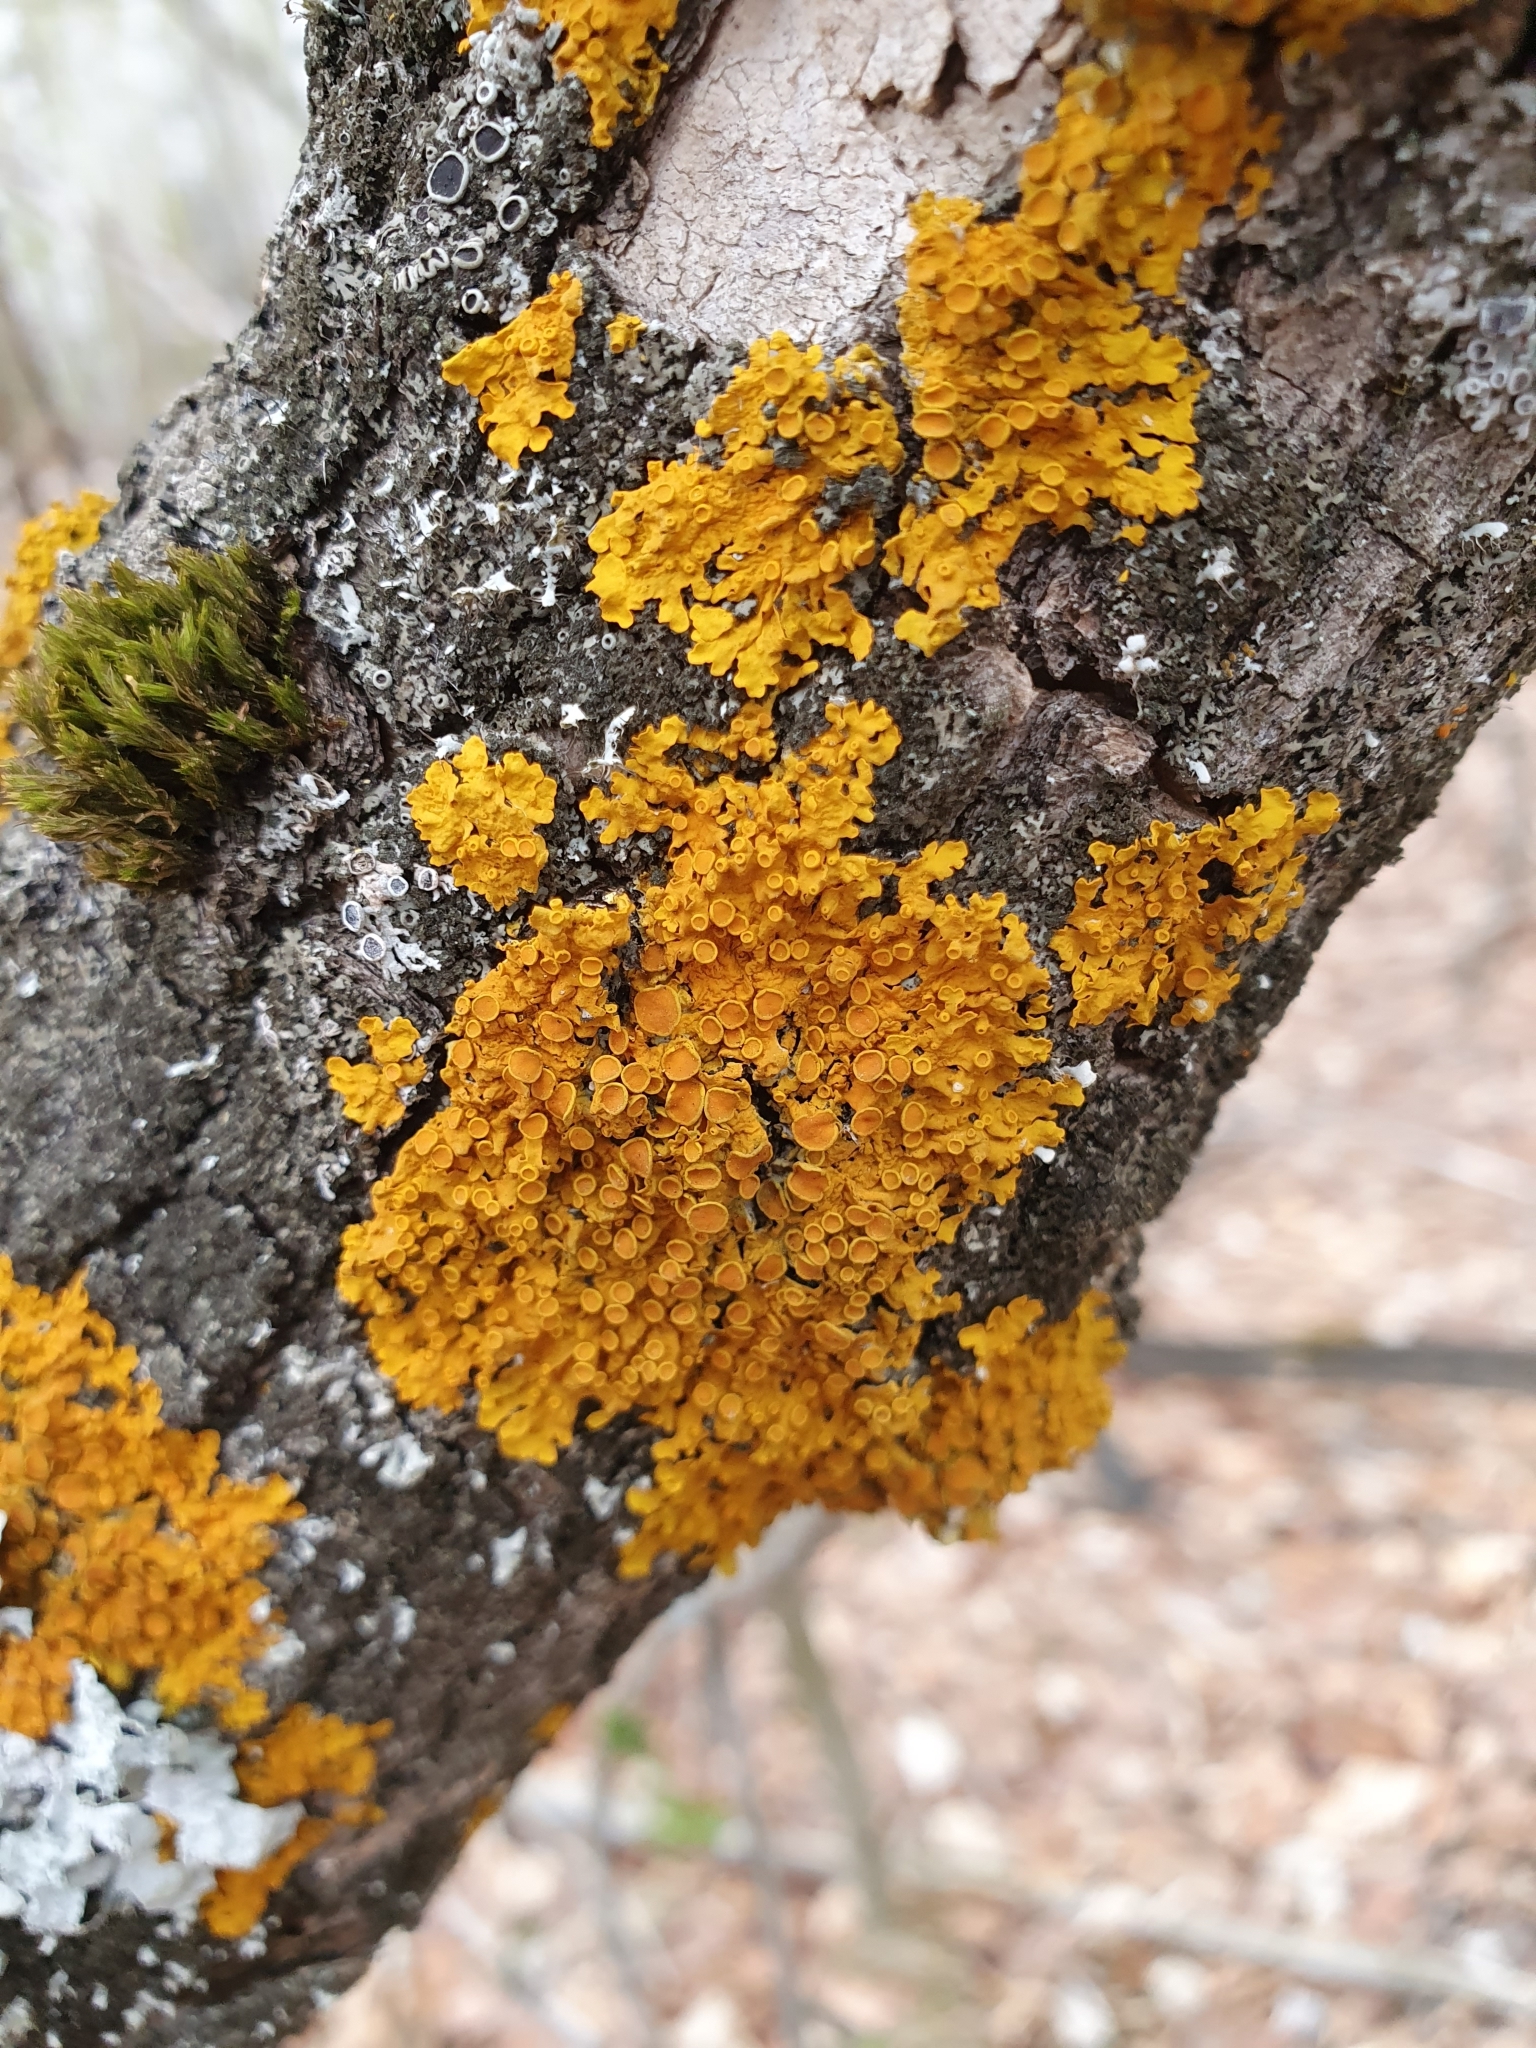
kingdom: Fungi
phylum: Ascomycota
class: Lecanoromycetes
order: Teloschistales
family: Teloschistaceae
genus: Xanthoria
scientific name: Xanthoria parietina
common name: Common orange lichen
